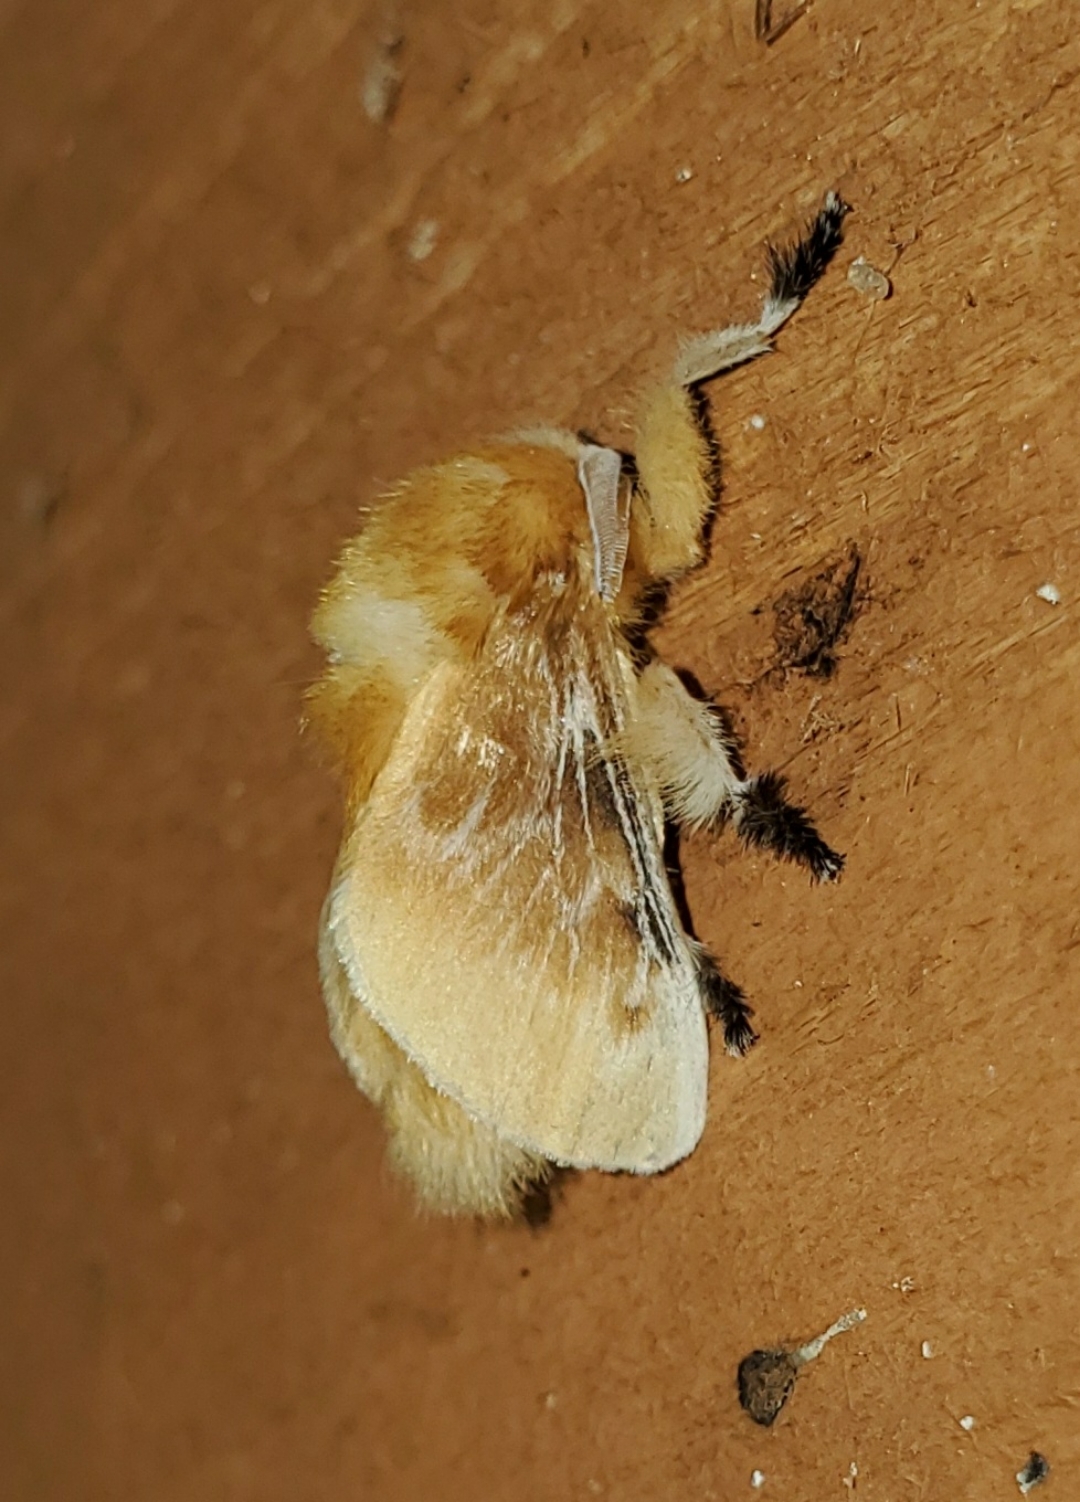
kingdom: Animalia
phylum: Arthropoda
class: Insecta
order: Lepidoptera
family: Megalopygidae
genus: Megalopyge
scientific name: Megalopyge opercularis
